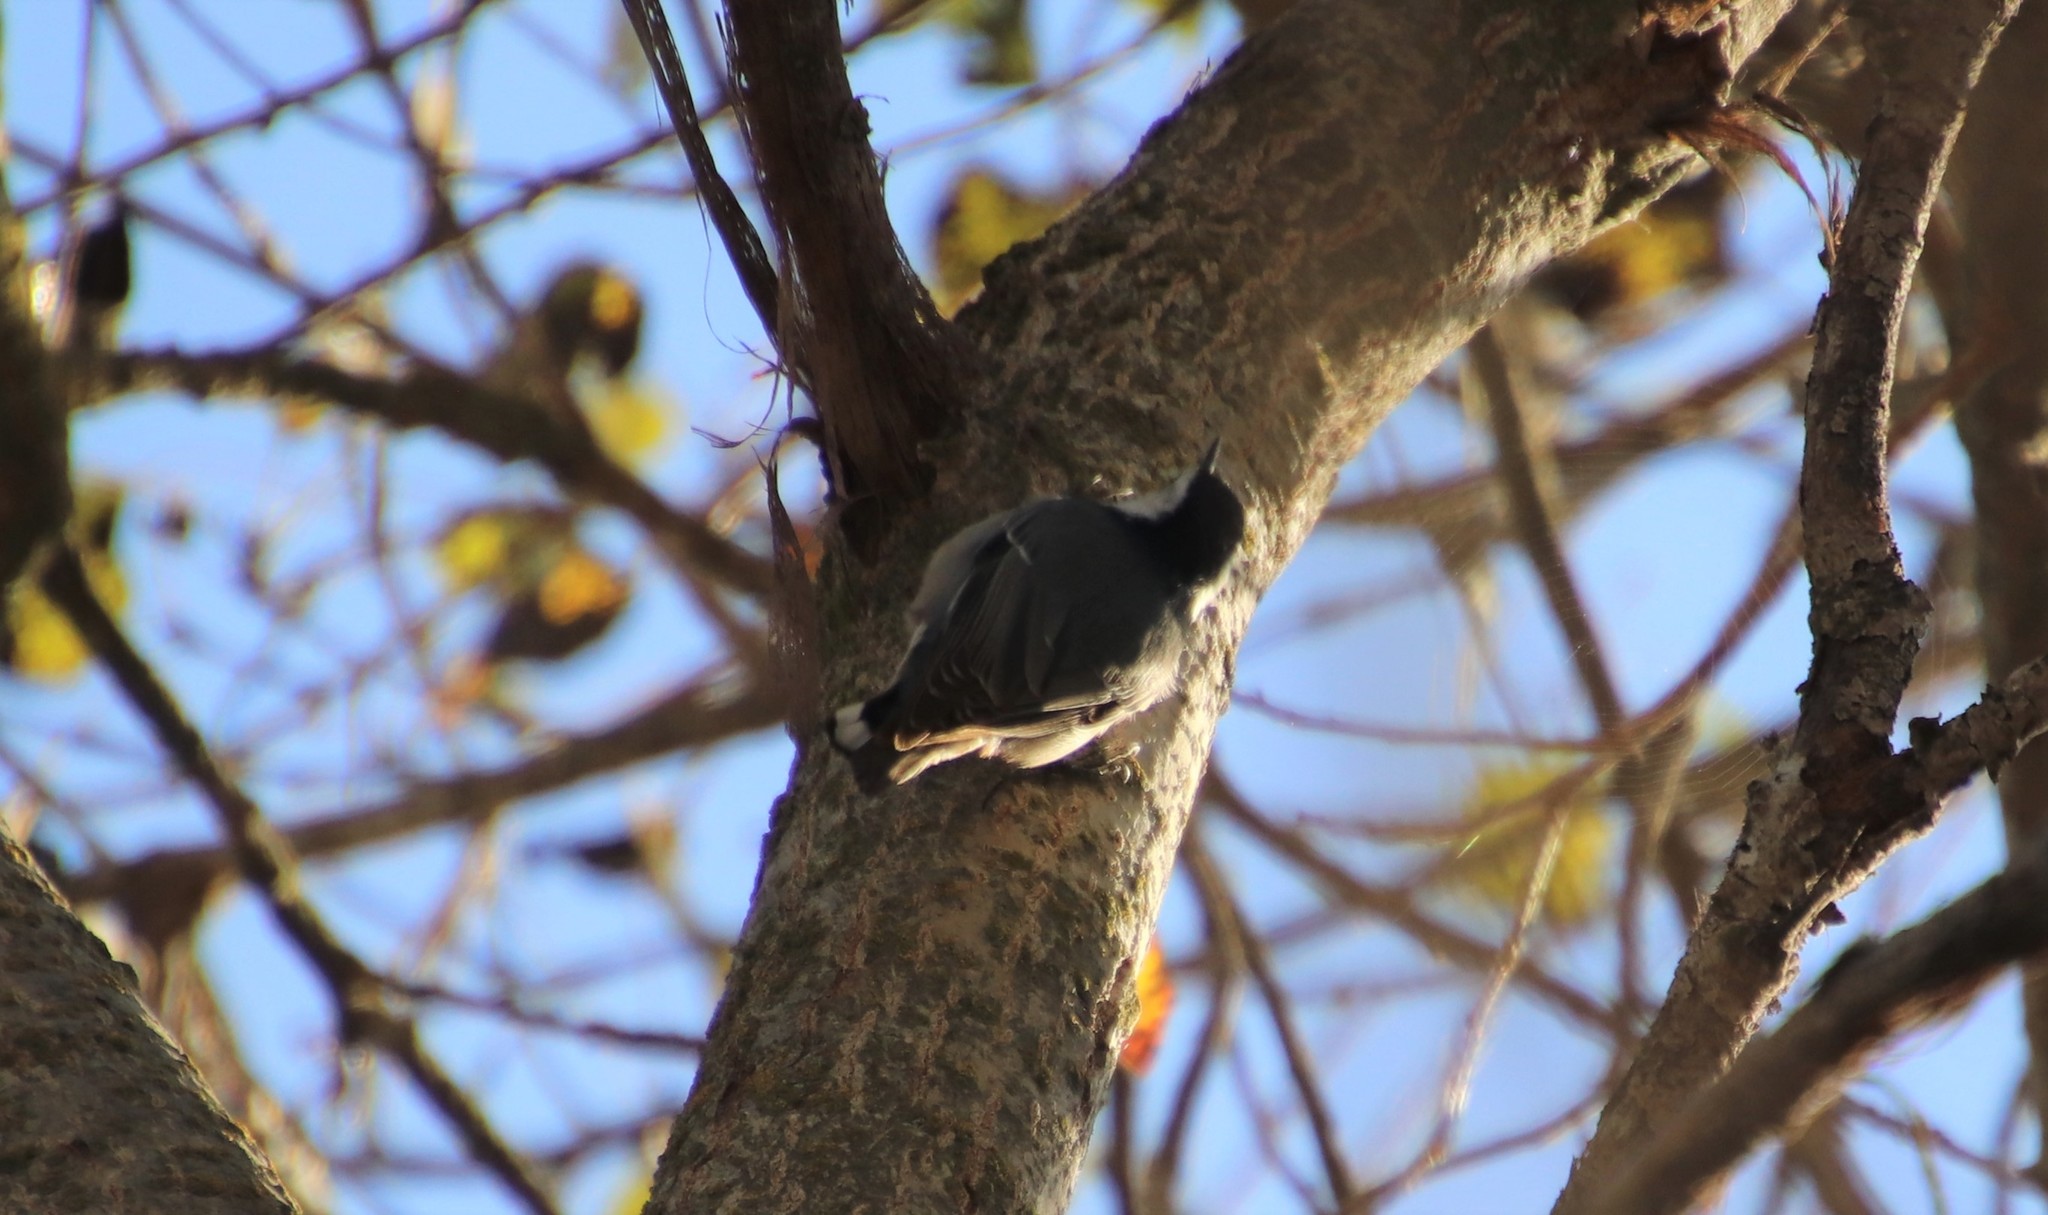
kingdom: Animalia
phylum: Chordata
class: Aves
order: Passeriformes
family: Sittidae
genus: Sitta
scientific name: Sitta carolinensis
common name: White-breasted nuthatch
